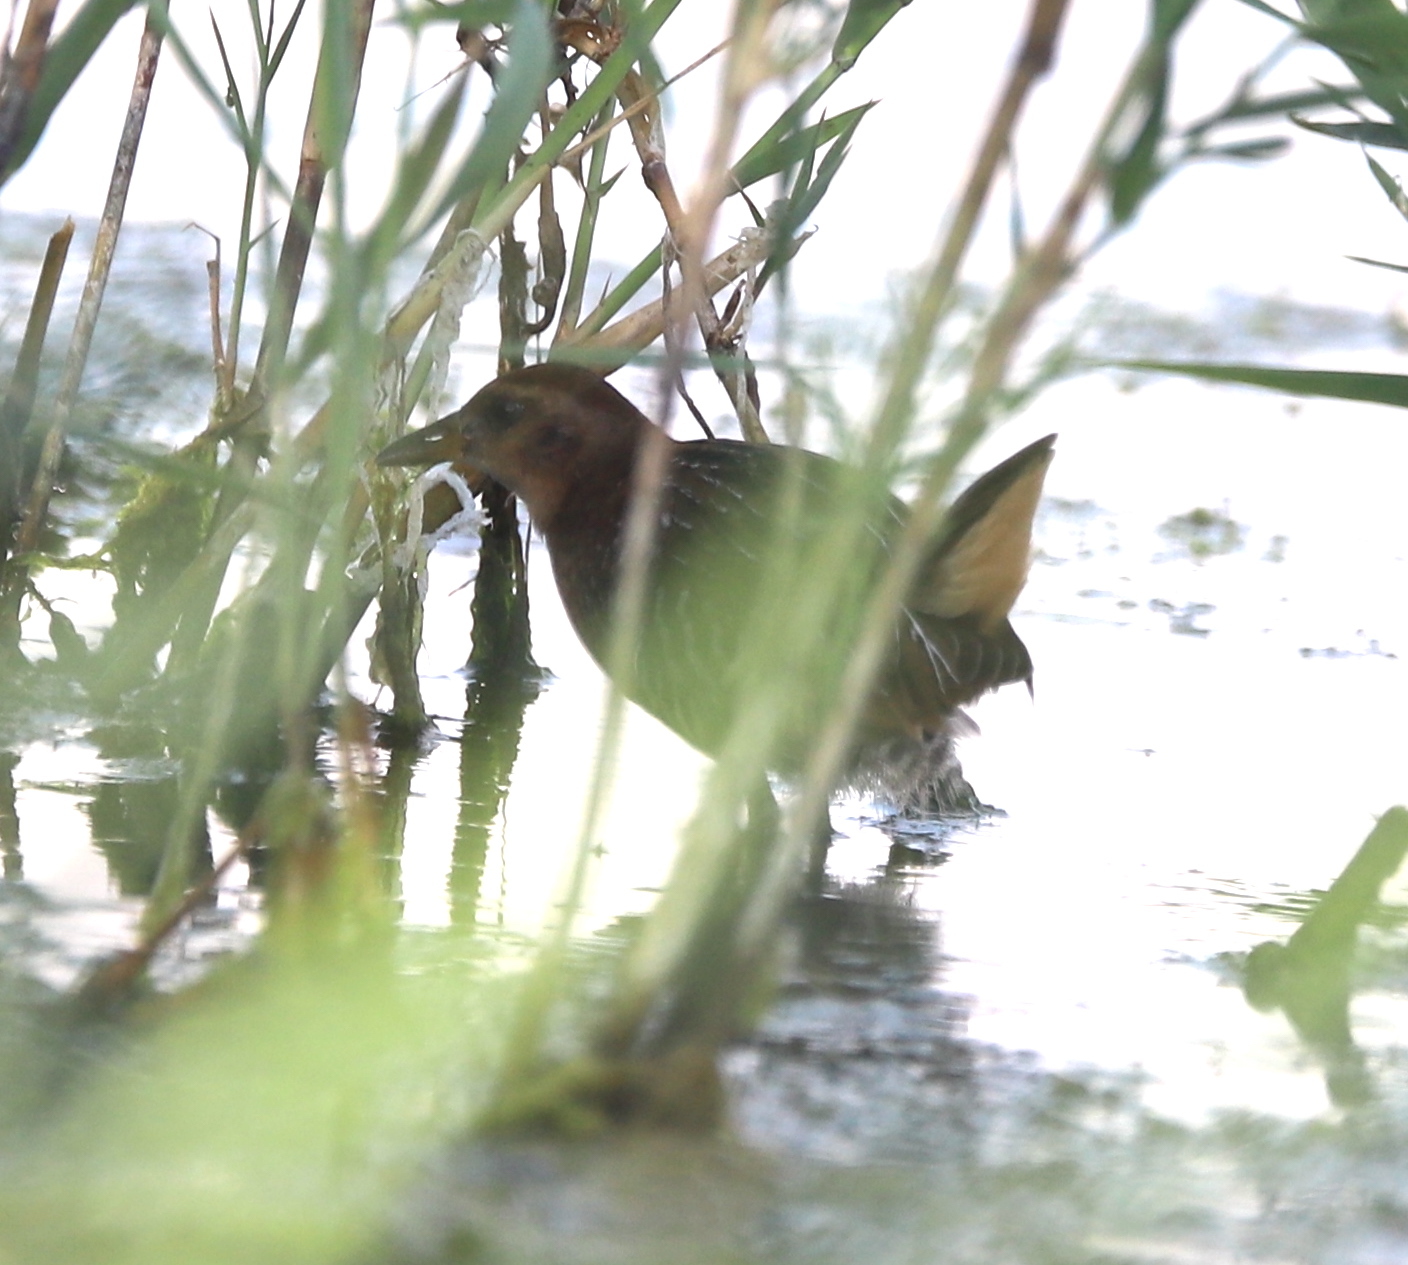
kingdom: Animalia
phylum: Chordata
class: Aves
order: Gruiformes
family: Rallidae
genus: Porzana
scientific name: Porzana carolina
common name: Sora
